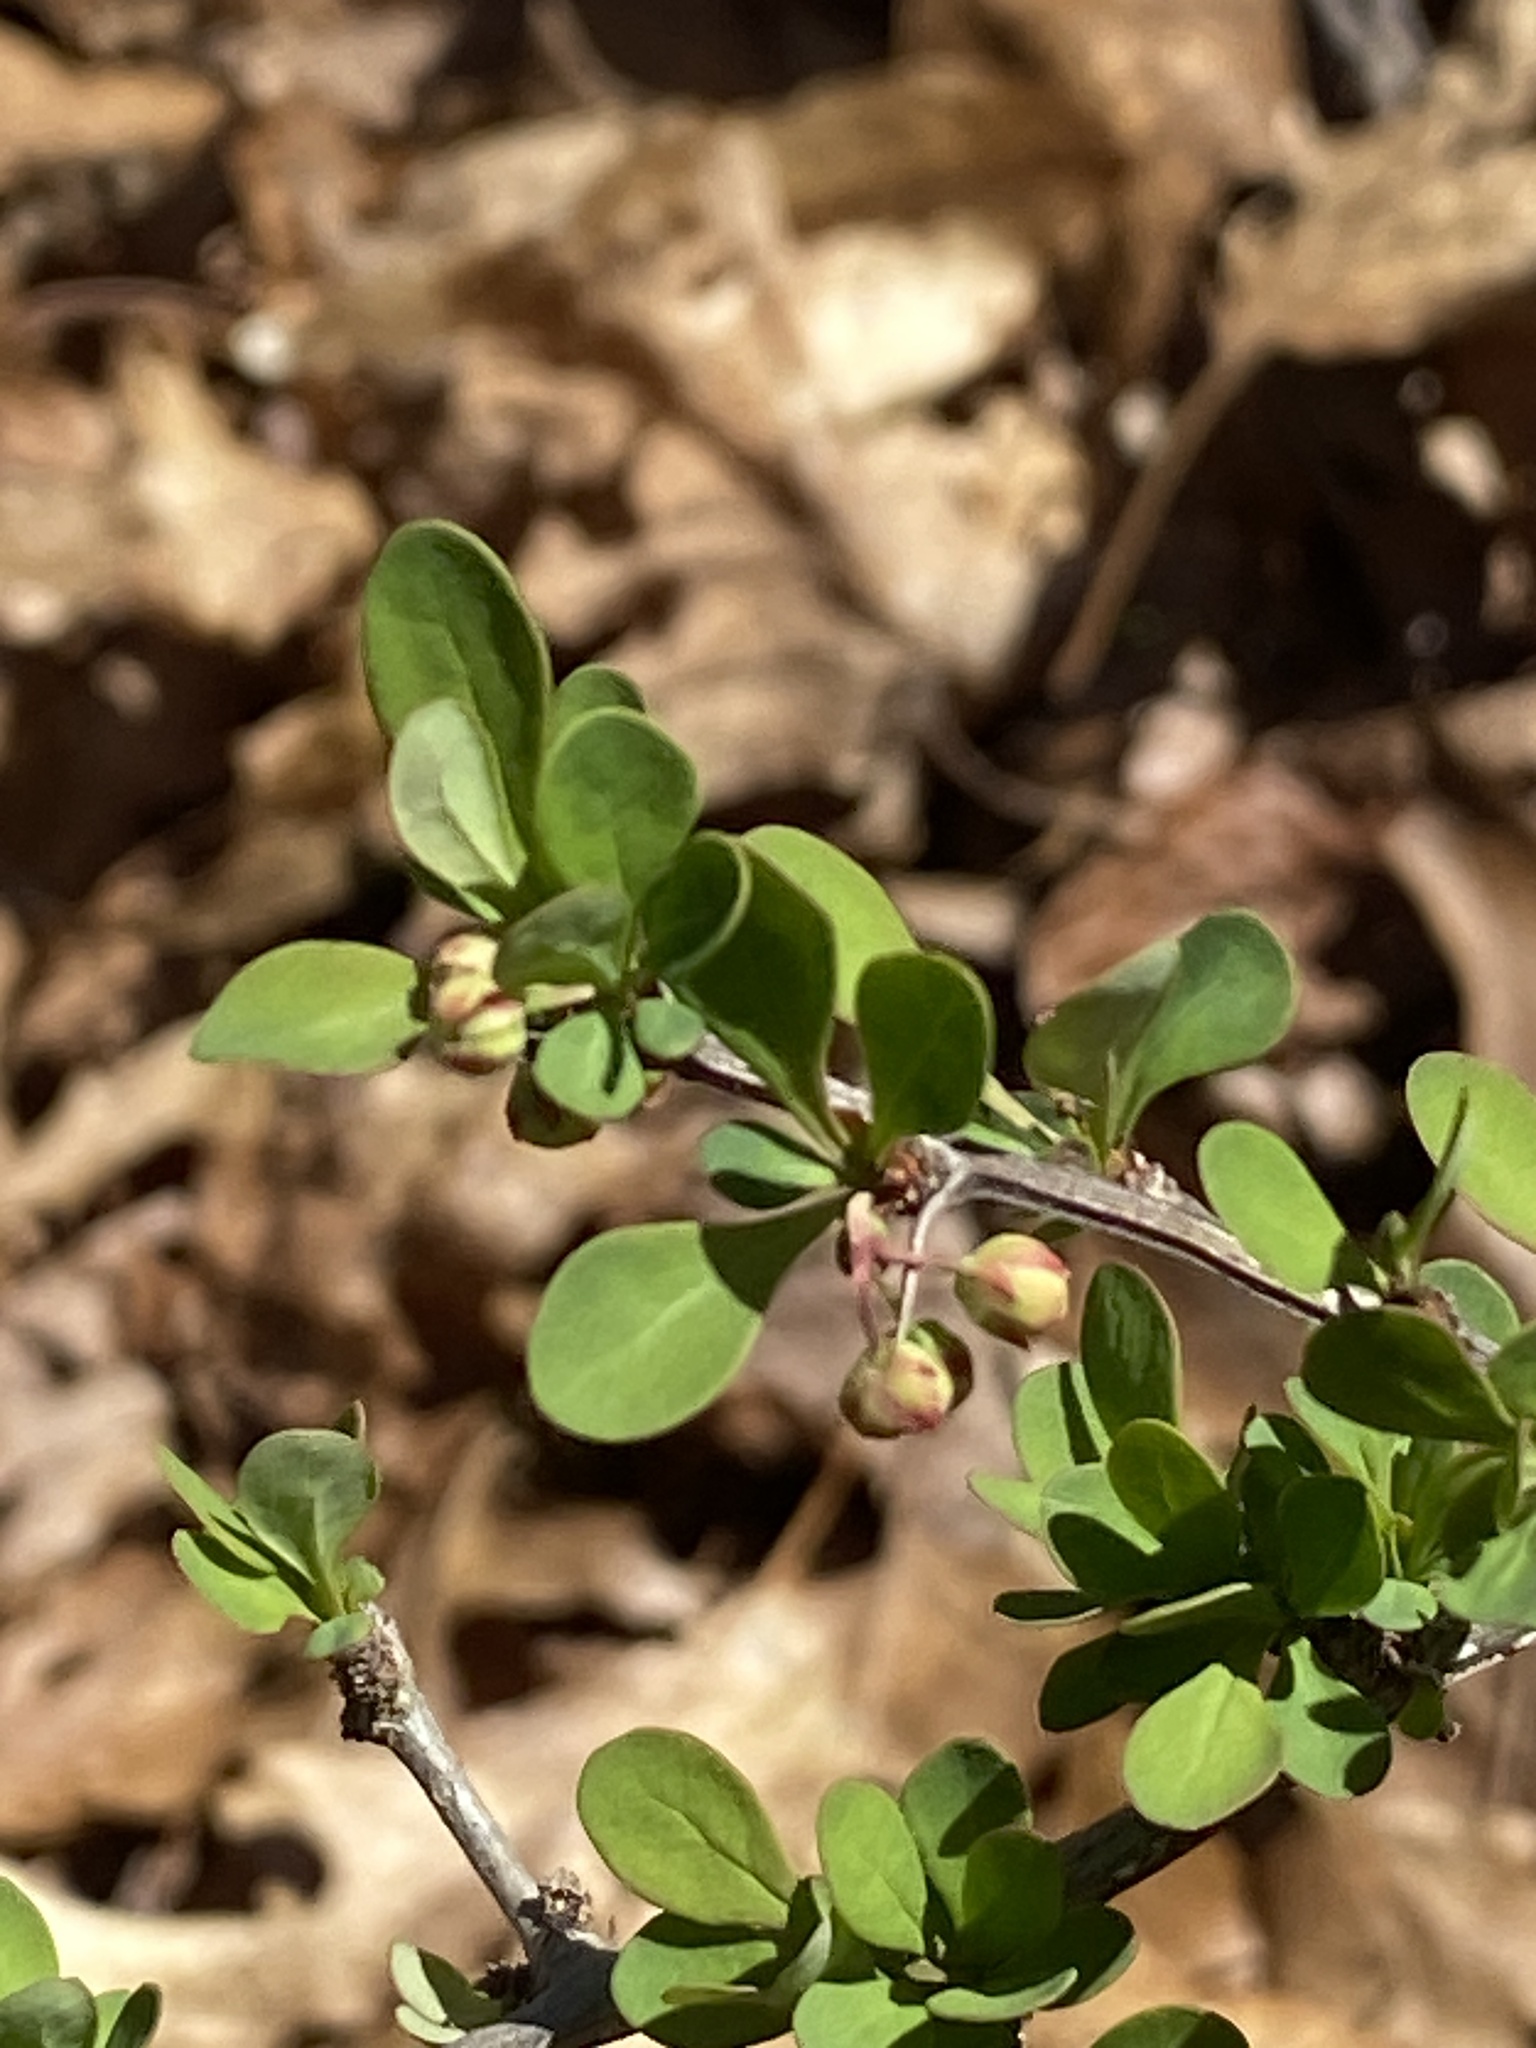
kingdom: Plantae
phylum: Tracheophyta
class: Magnoliopsida
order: Ranunculales
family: Berberidaceae
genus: Berberis
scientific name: Berberis thunbergii
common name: Japanese barberry
